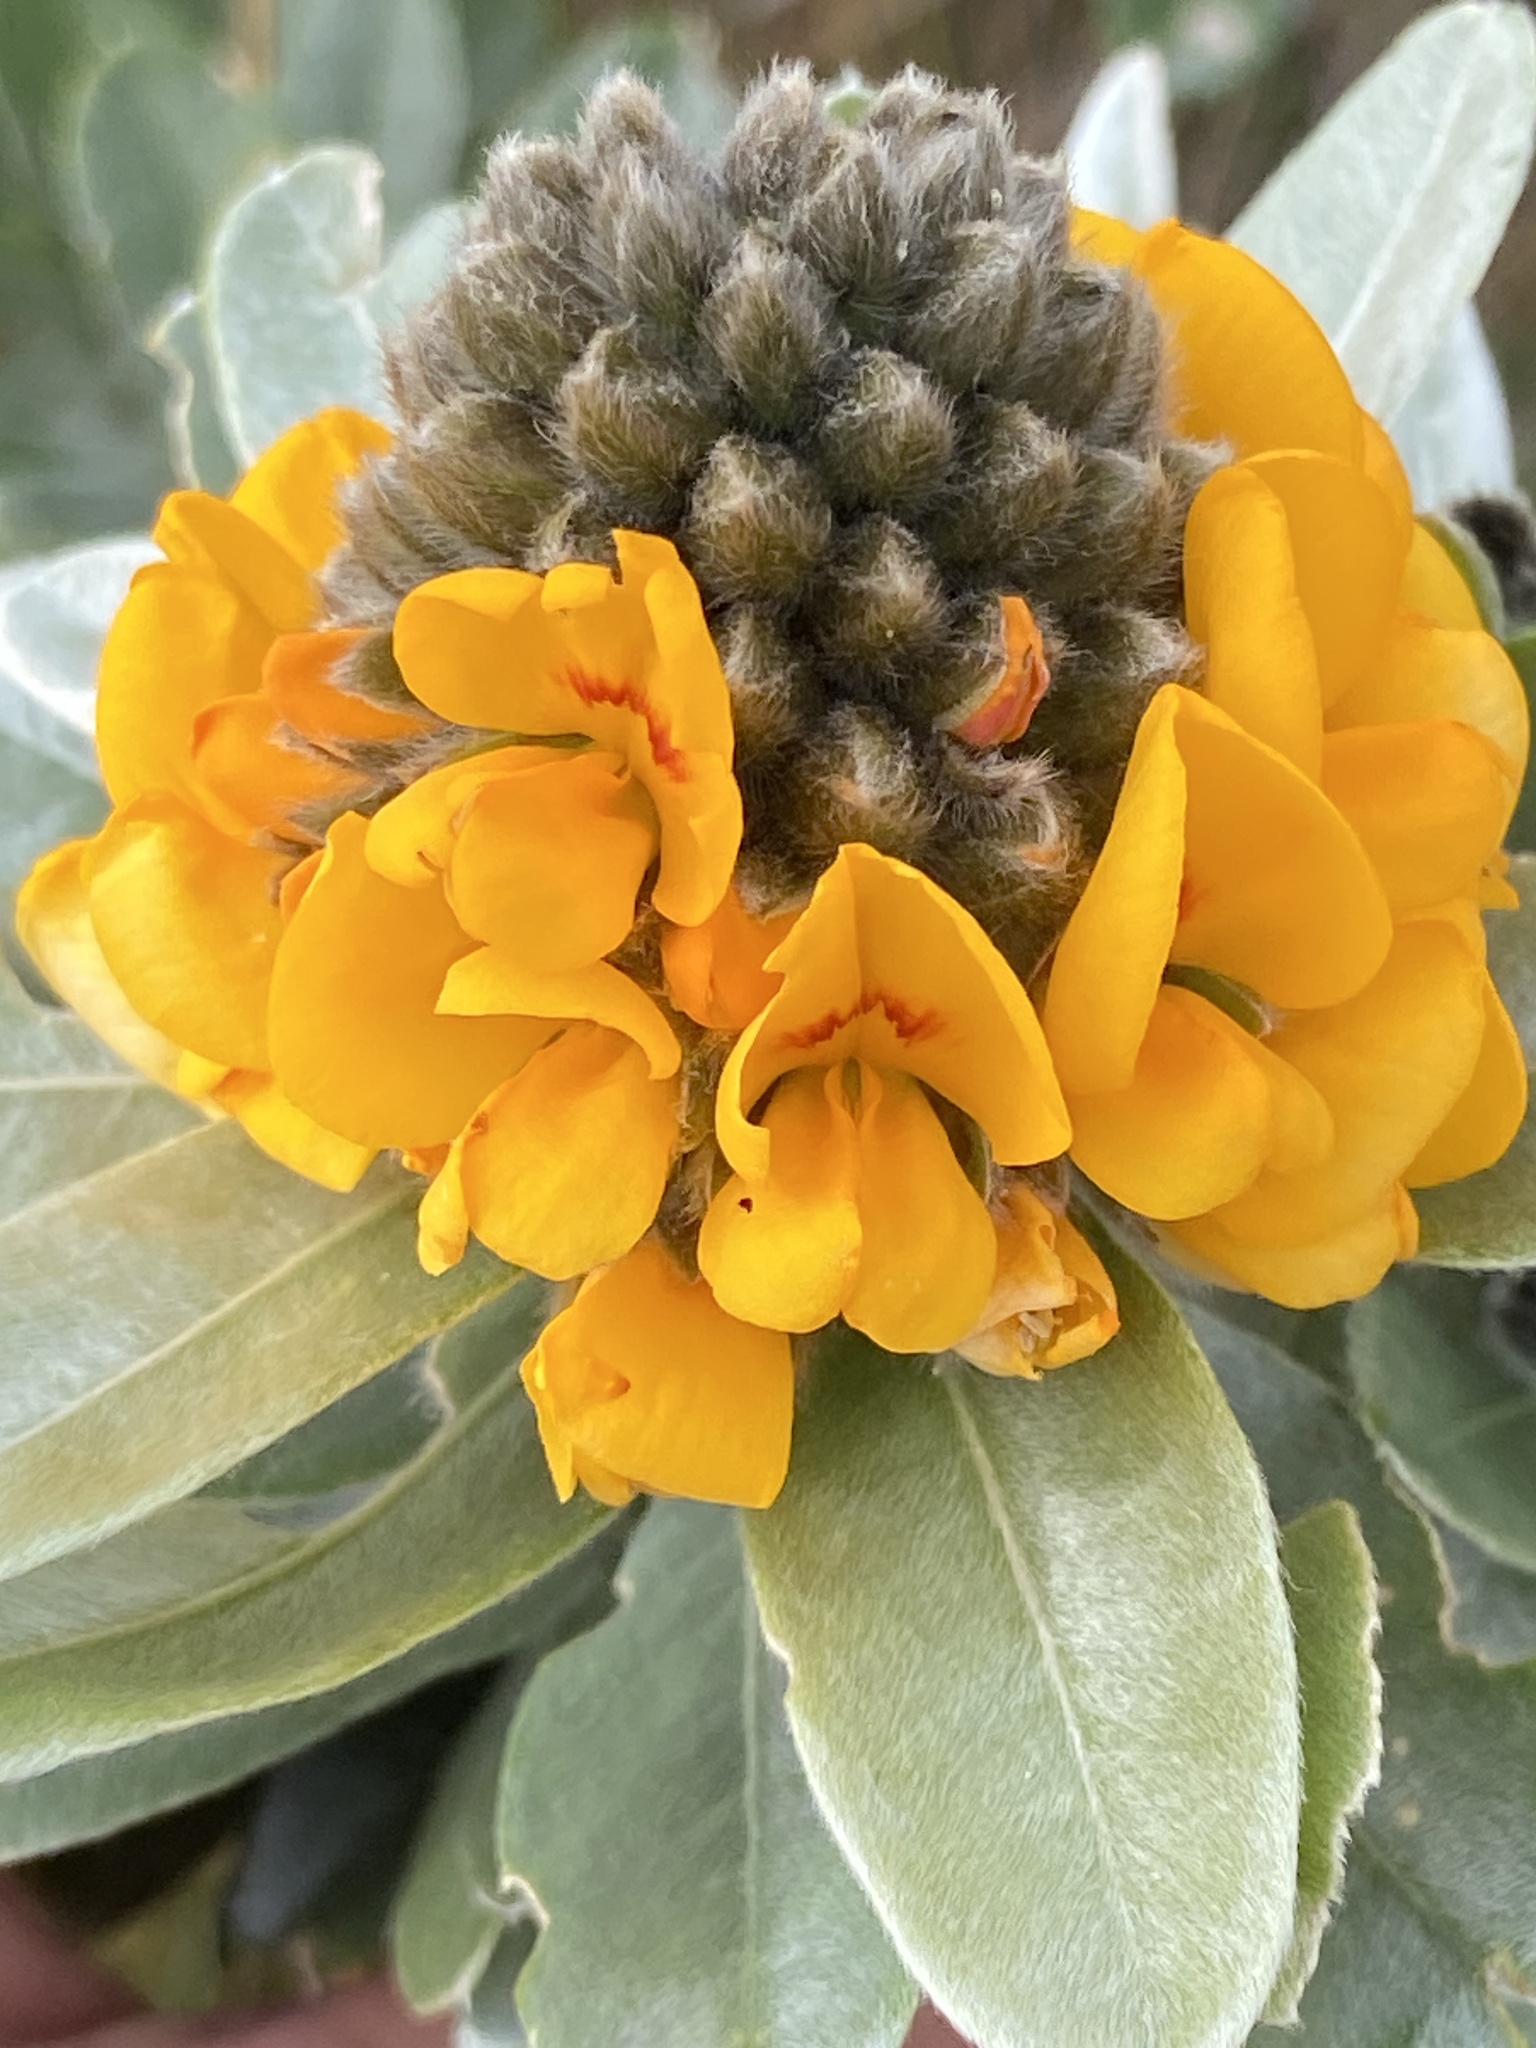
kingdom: Plantae
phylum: Tracheophyta
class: Magnoliopsida
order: Fabales
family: Fabaceae
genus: Callistachys
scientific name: Callistachys lanceolata
